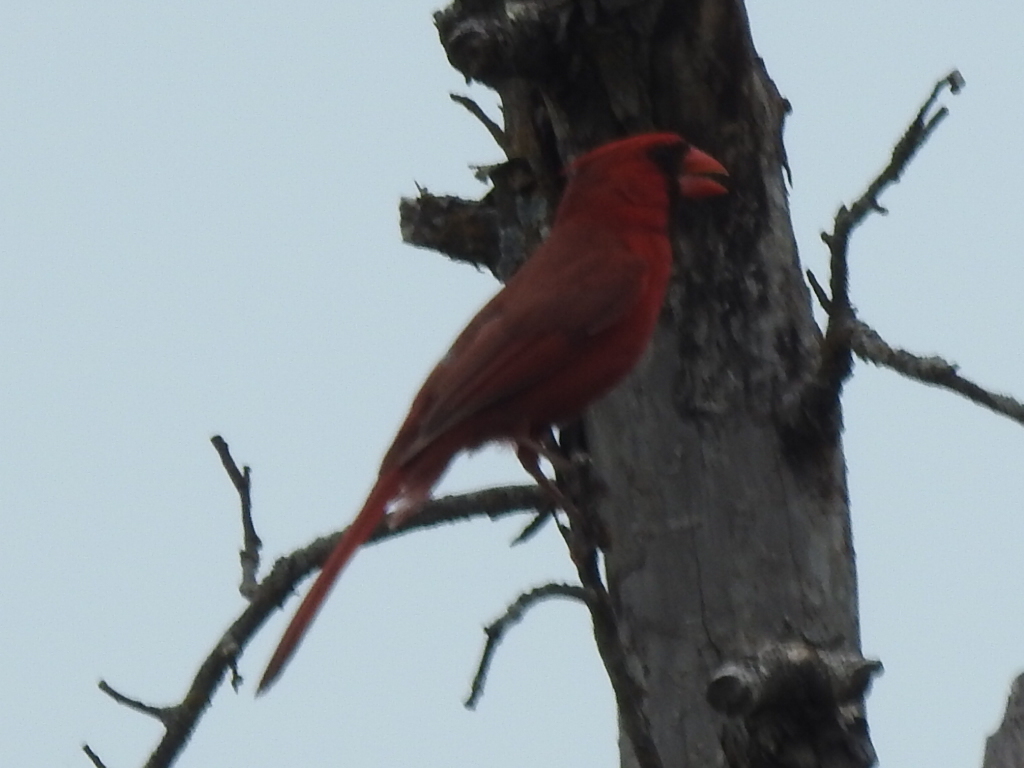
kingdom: Animalia
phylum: Chordata
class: Aves
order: Passeriformes
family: Cardinalidae
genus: Cardinalis
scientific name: Cardinalis cardinalis
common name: Northern cardinal
